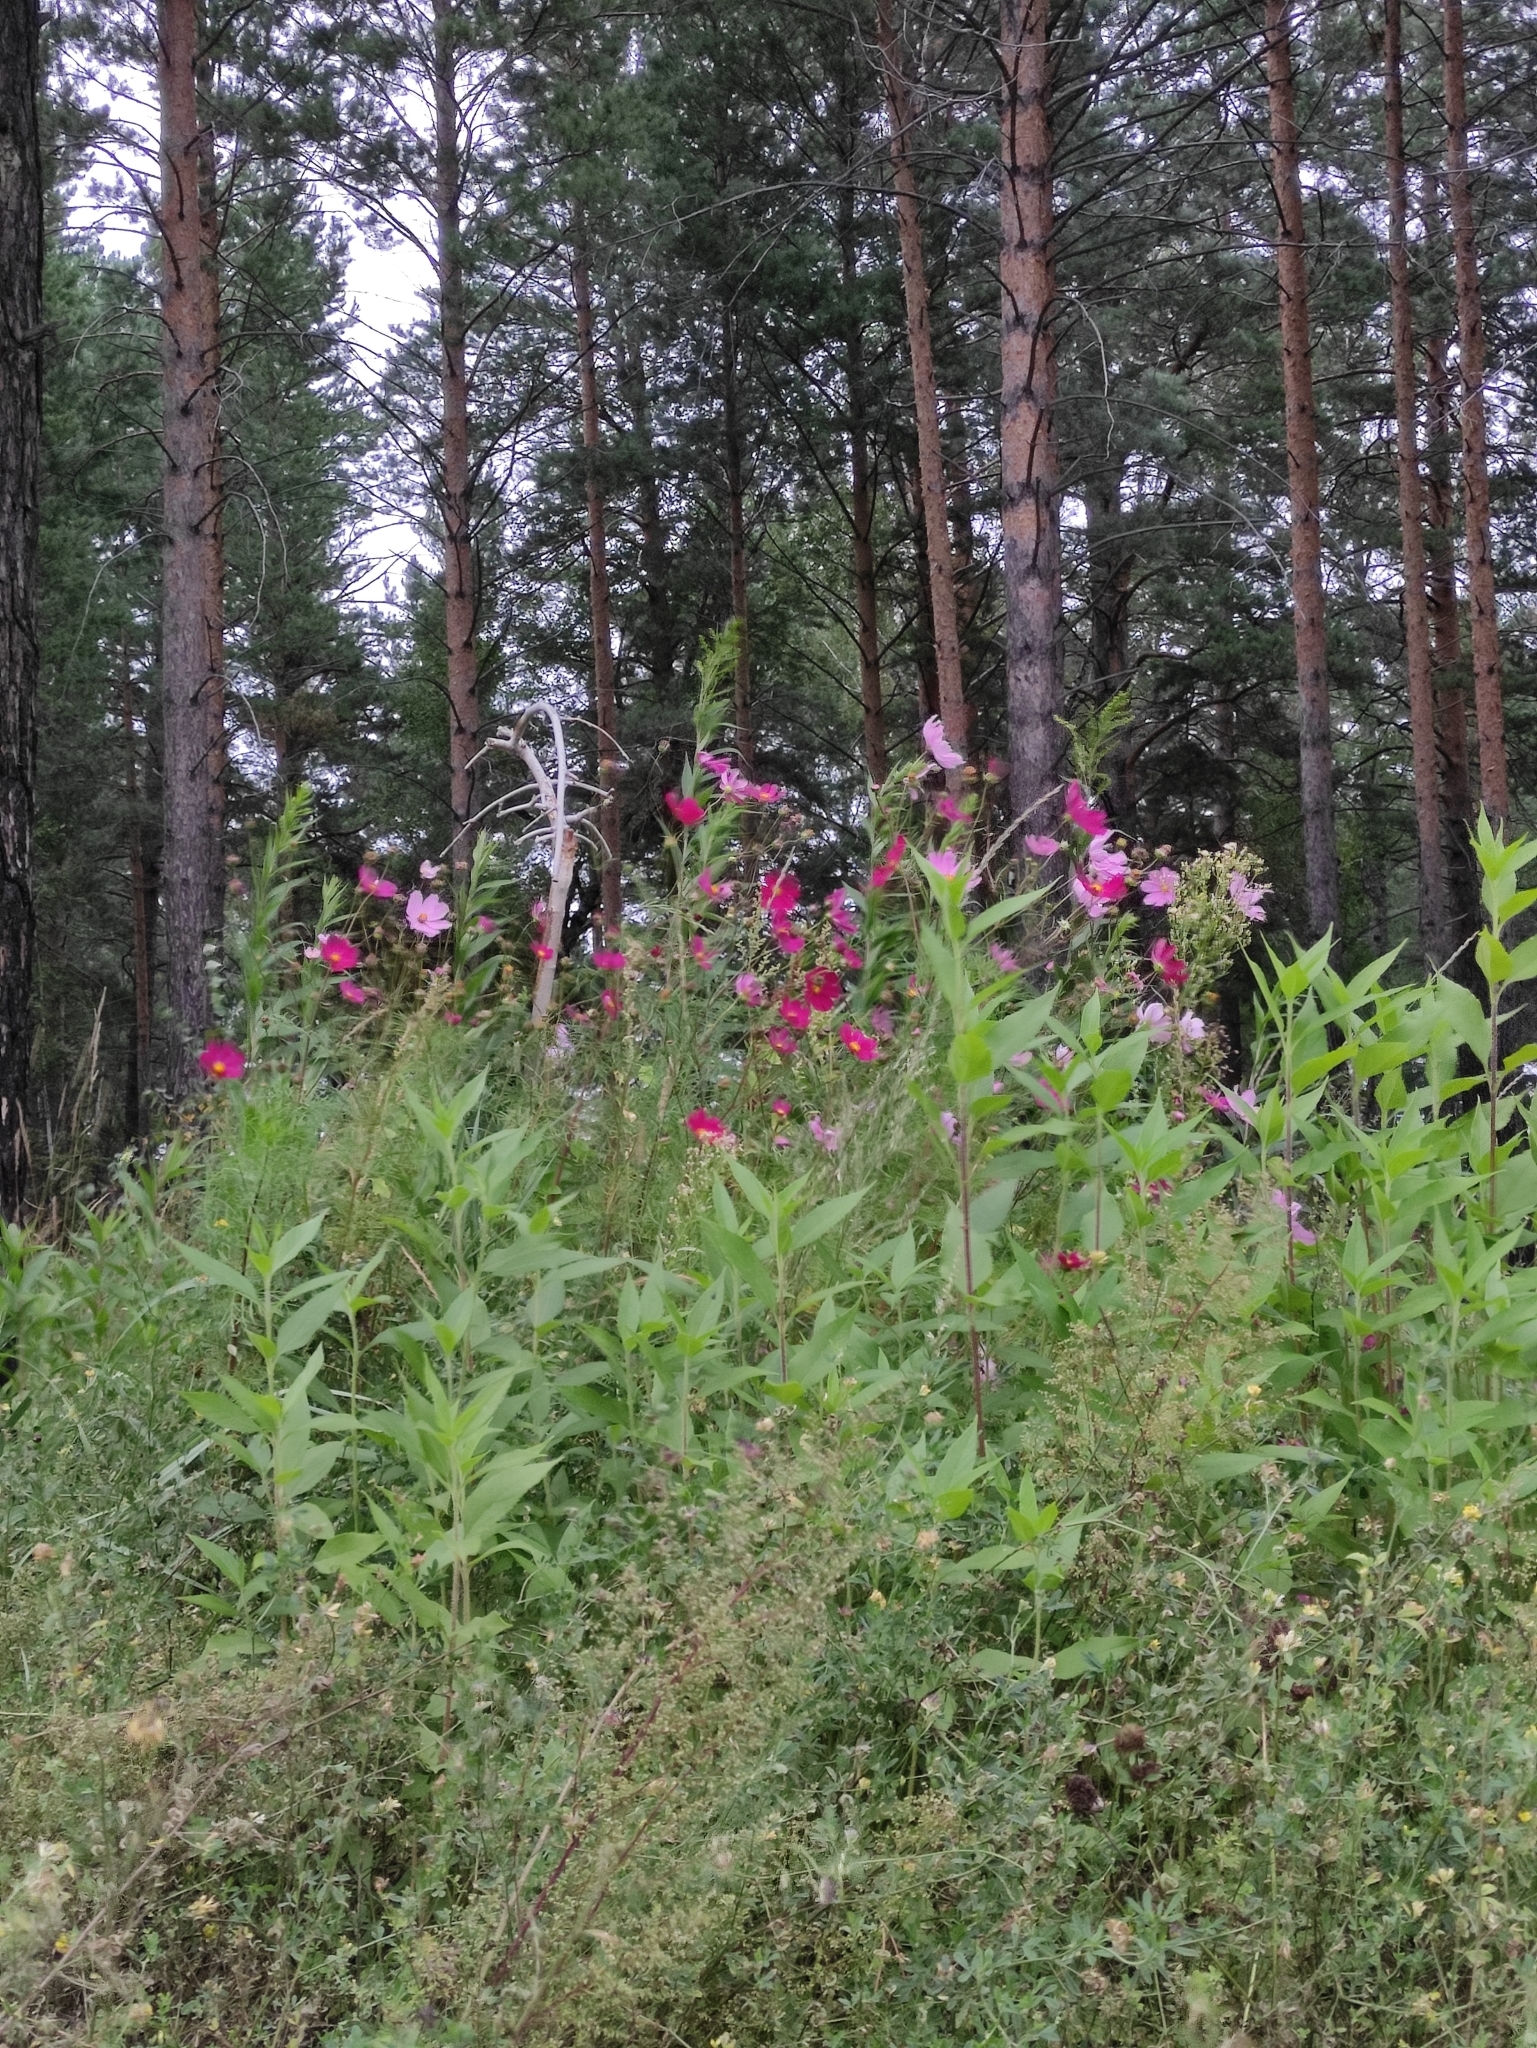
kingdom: Plantae
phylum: Tracheophyta
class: Magnoliopsida
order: Asterales
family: Asteraceae
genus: Cosmos
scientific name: Cosmos bipinnatus
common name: Garden cosmos
